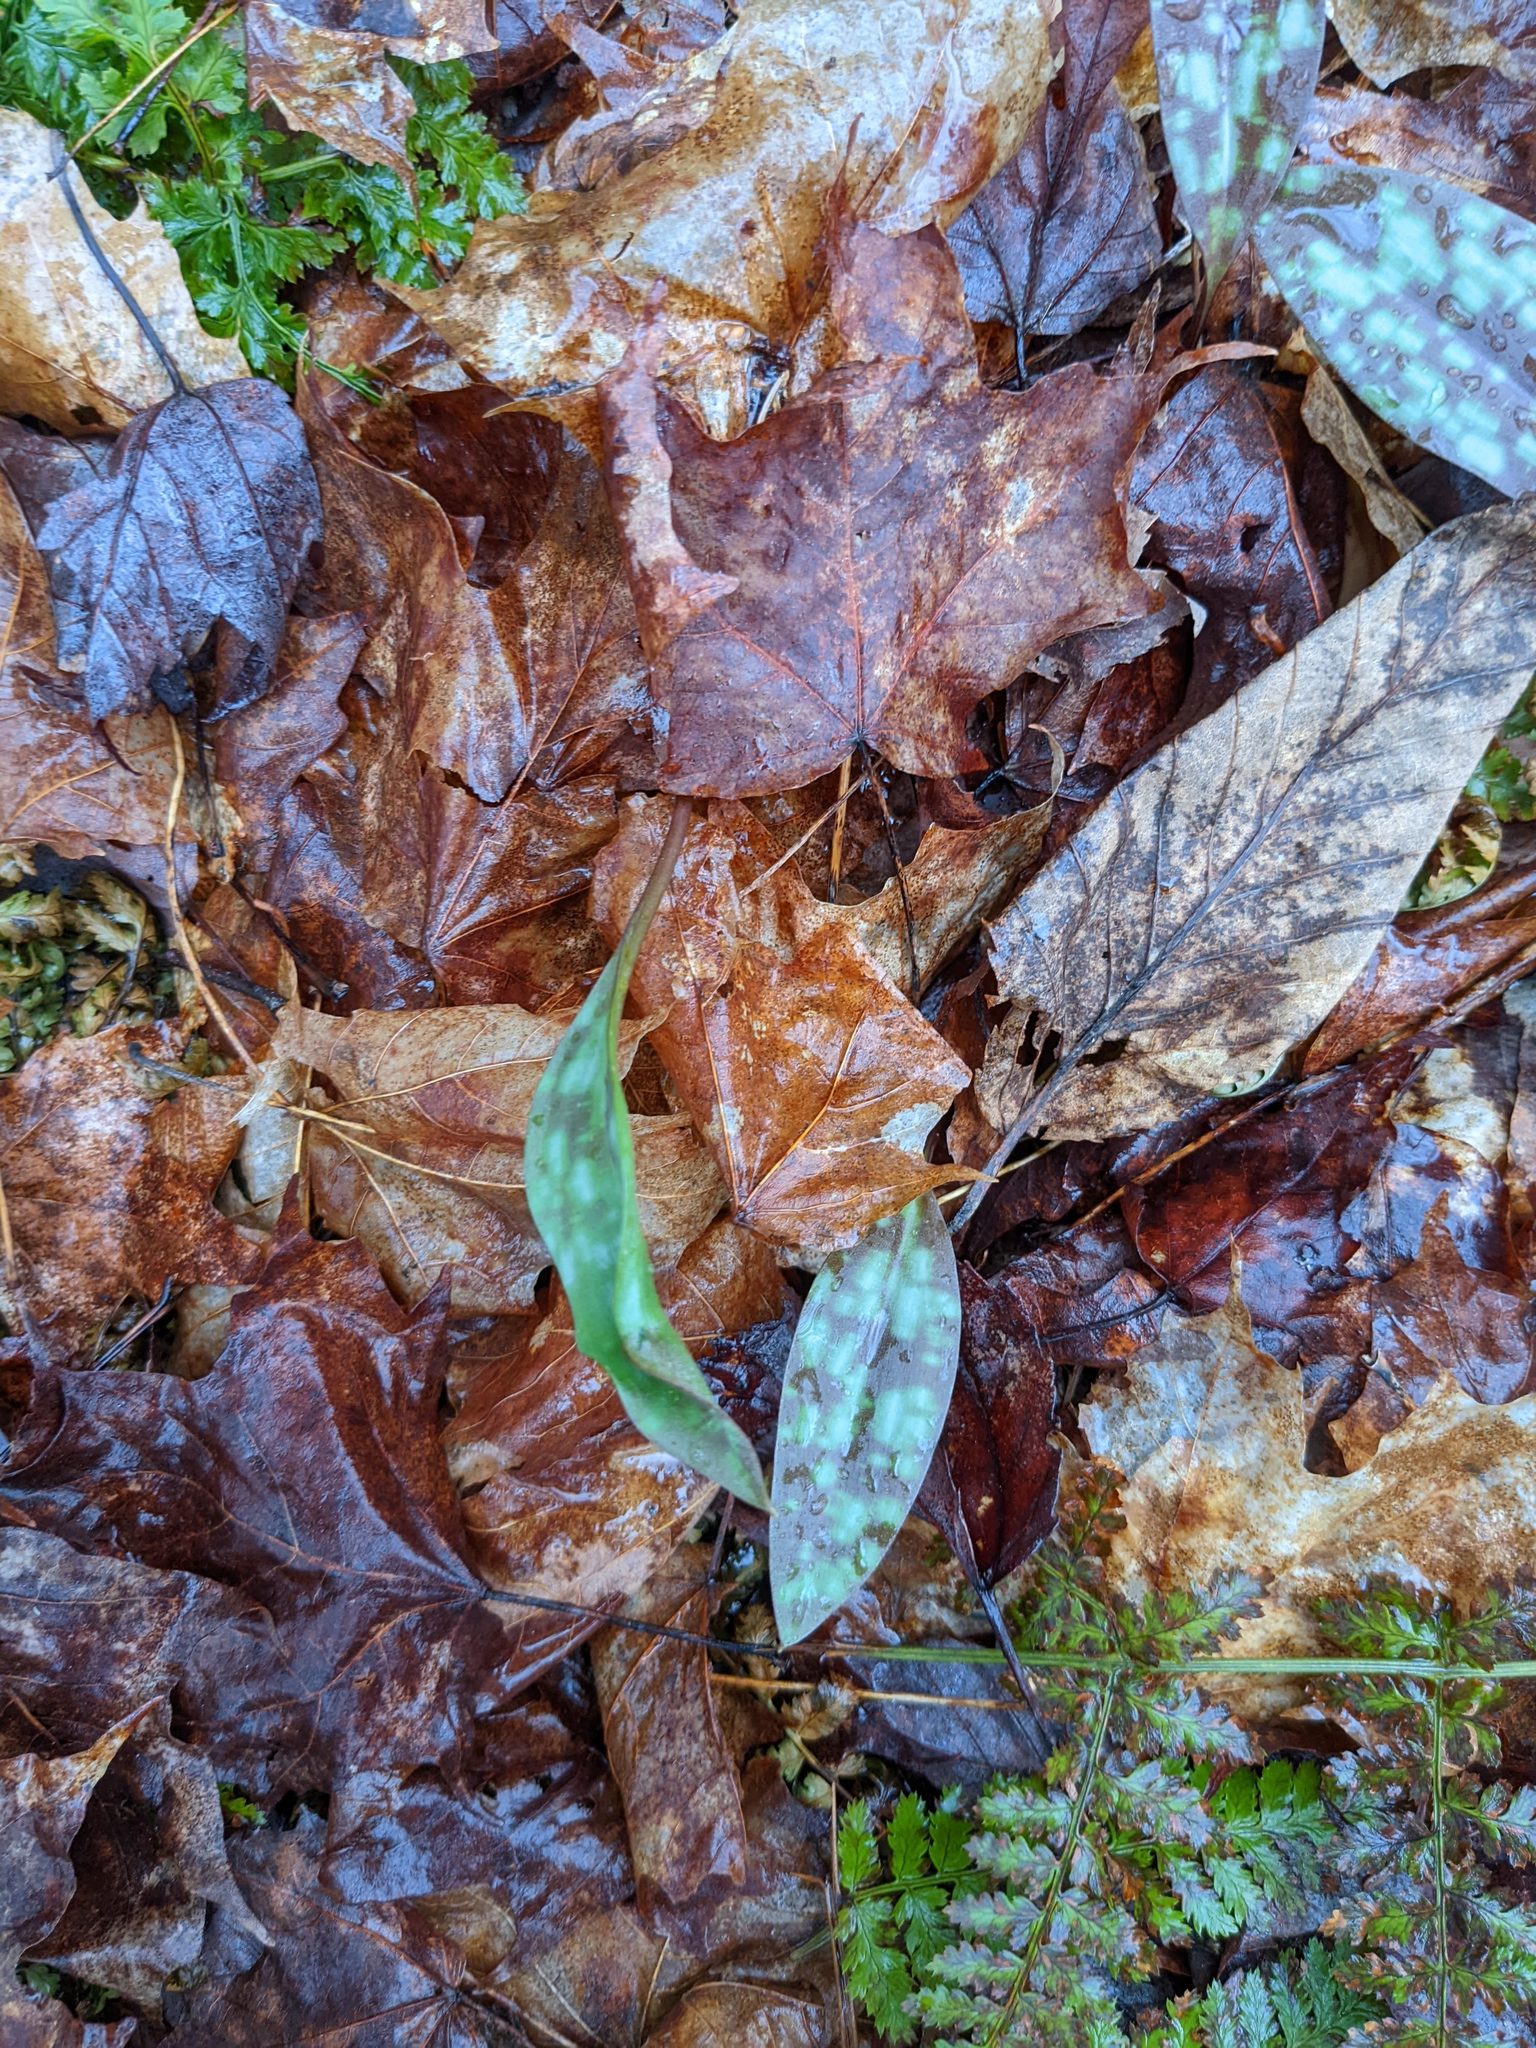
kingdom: Plantae
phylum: Tracheophyta
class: Liliopsida
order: Liliales
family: Liliaceae
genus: Erythronium
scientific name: Erythronium americanum
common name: Yellow adder's-tongue
